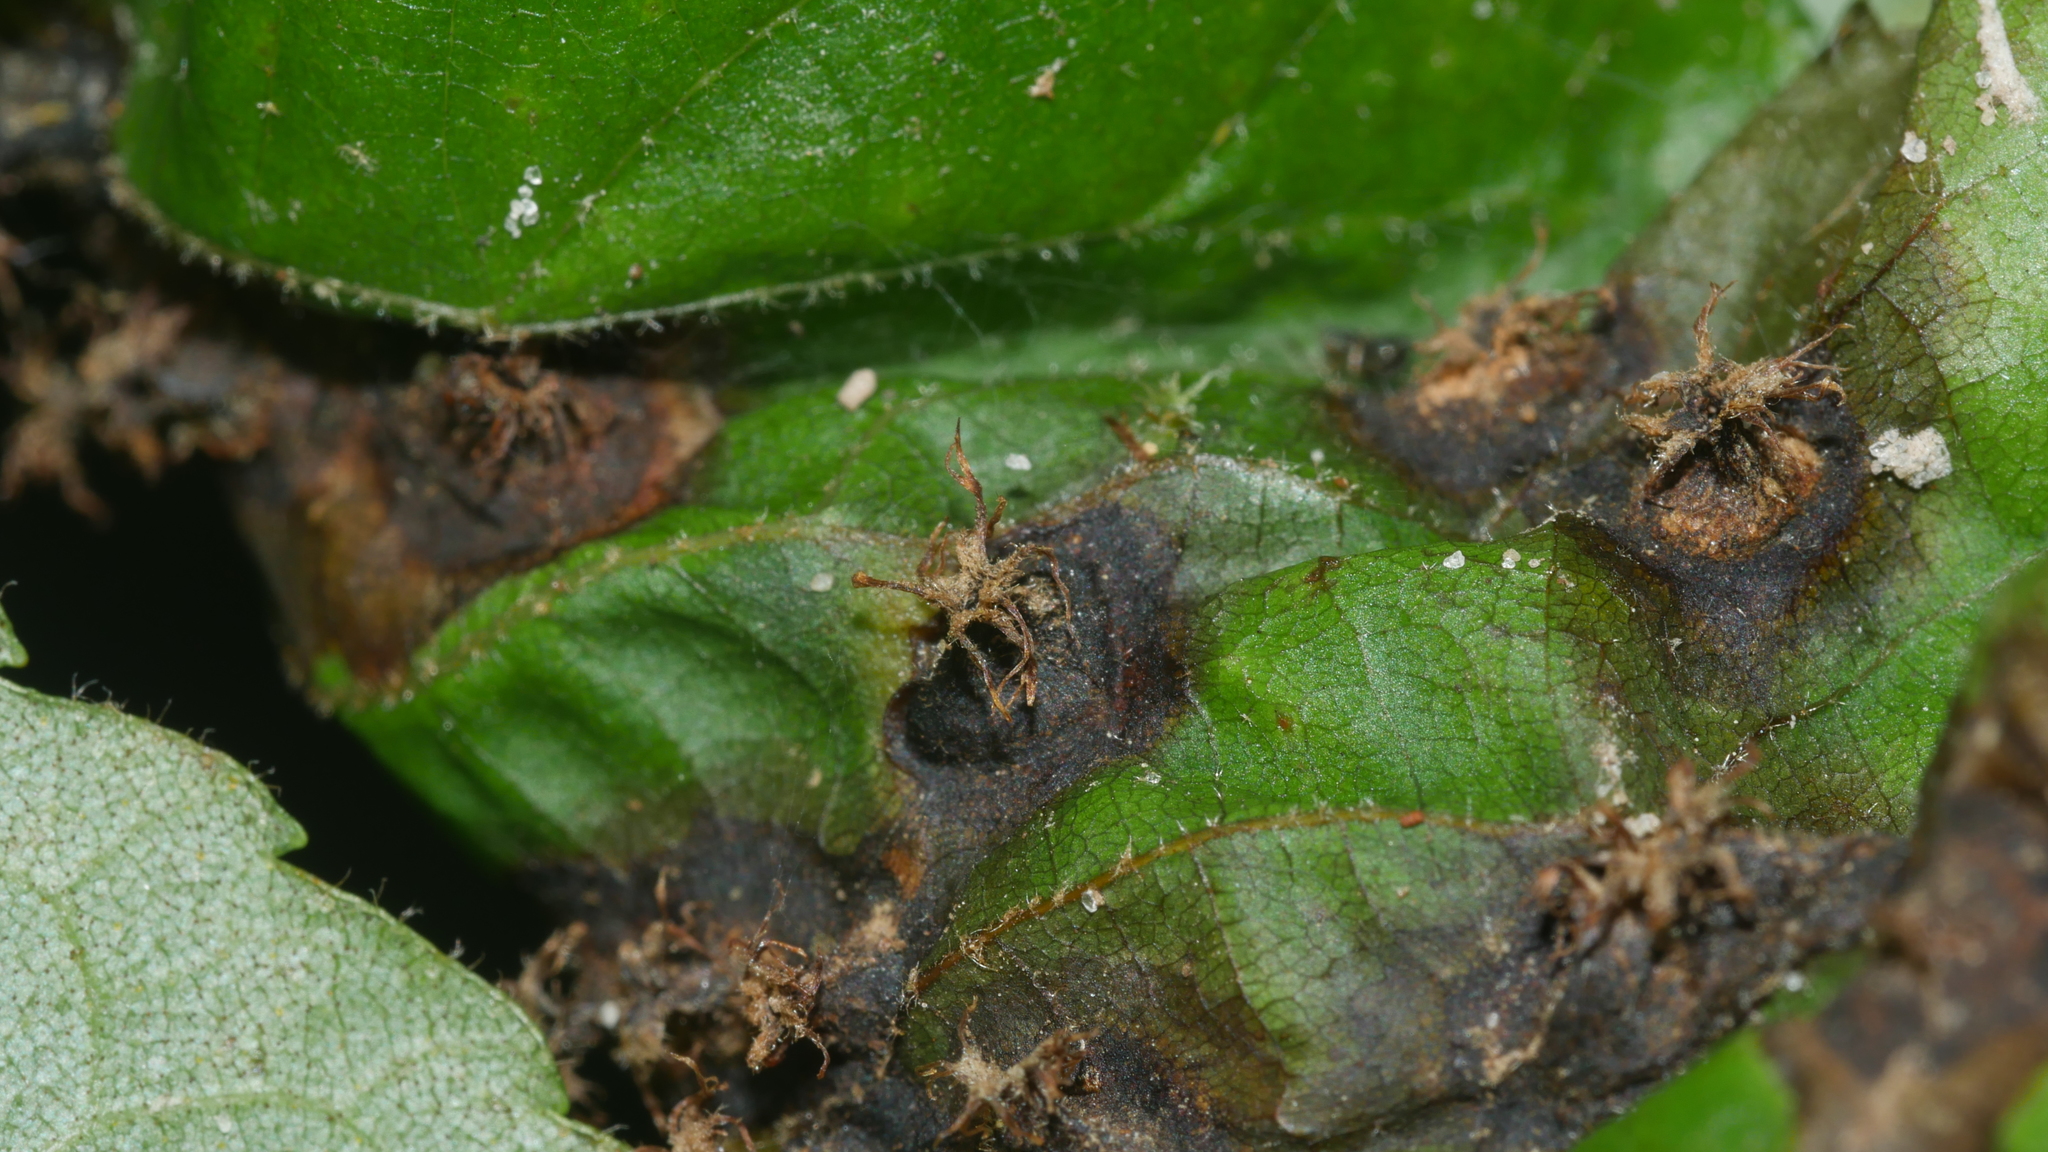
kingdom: Animalia
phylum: Arthropoda
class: Insecta
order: Hemiptera
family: Phylloxeridae
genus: Phylloxera
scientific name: Phylloxera caryaefoliae
